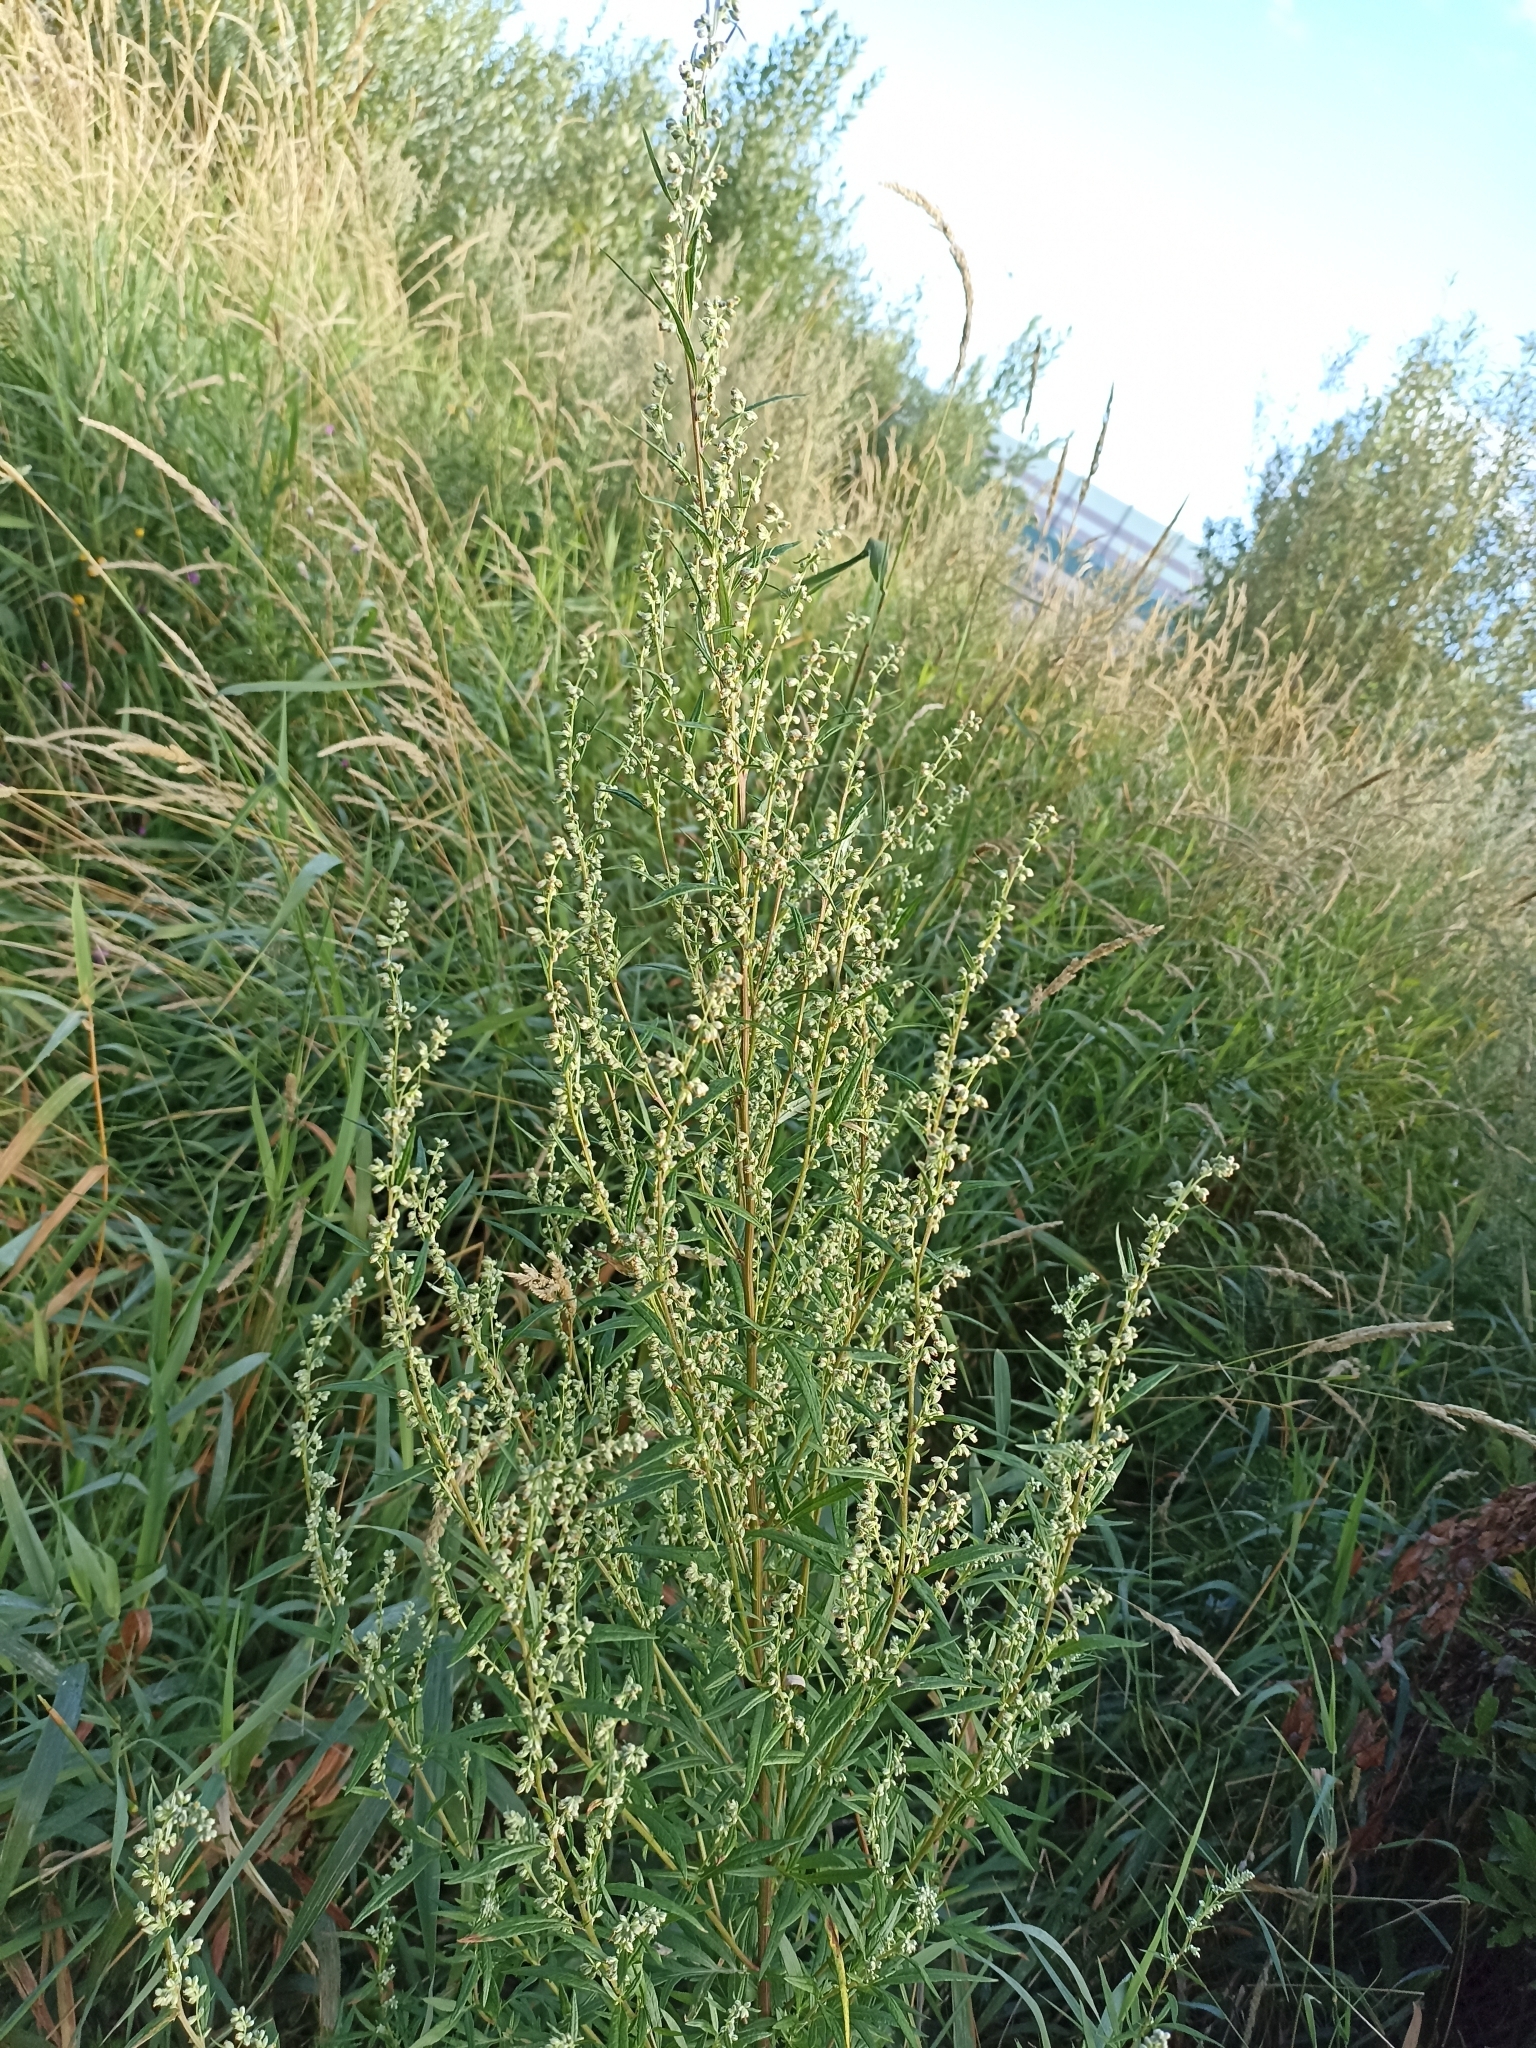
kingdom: Plantae
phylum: Tracheophyta
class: Magnoliopsida
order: Asterales
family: Asteraceae
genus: Artemisia
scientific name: Artemisia vulgaris
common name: Mugwort
